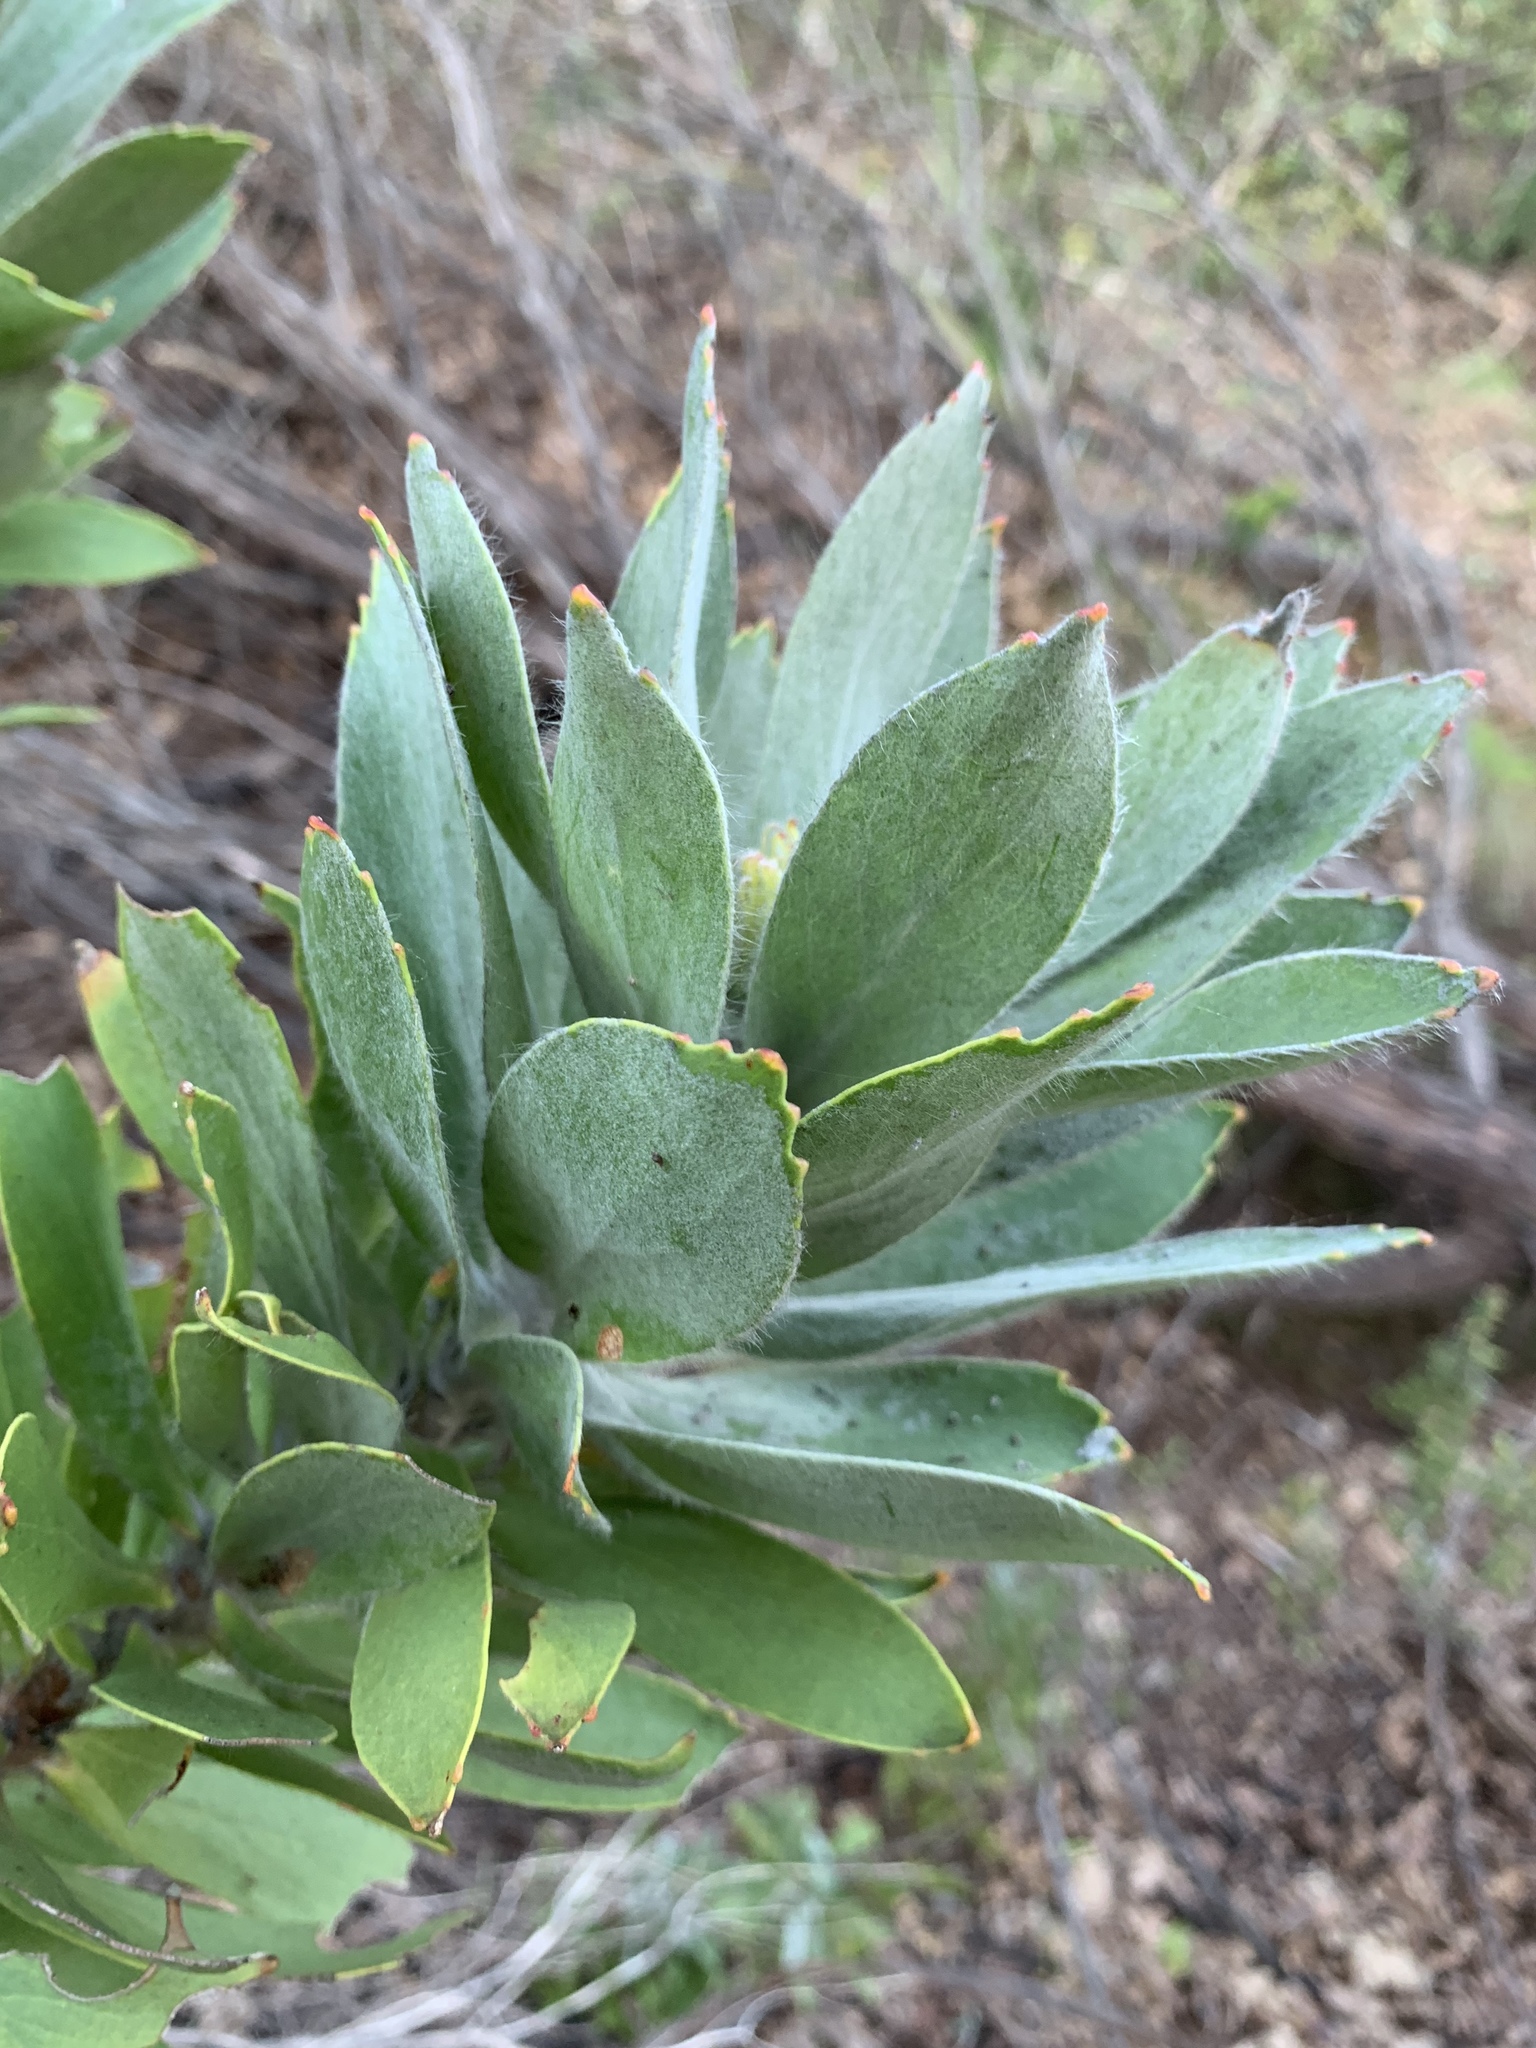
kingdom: Plantae
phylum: Tracheophyta
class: Magnoliopsida
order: Proteales
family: Proteaceae
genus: Leucospermum
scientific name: Leucospermum conocarpodendron
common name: Tree pincushion
